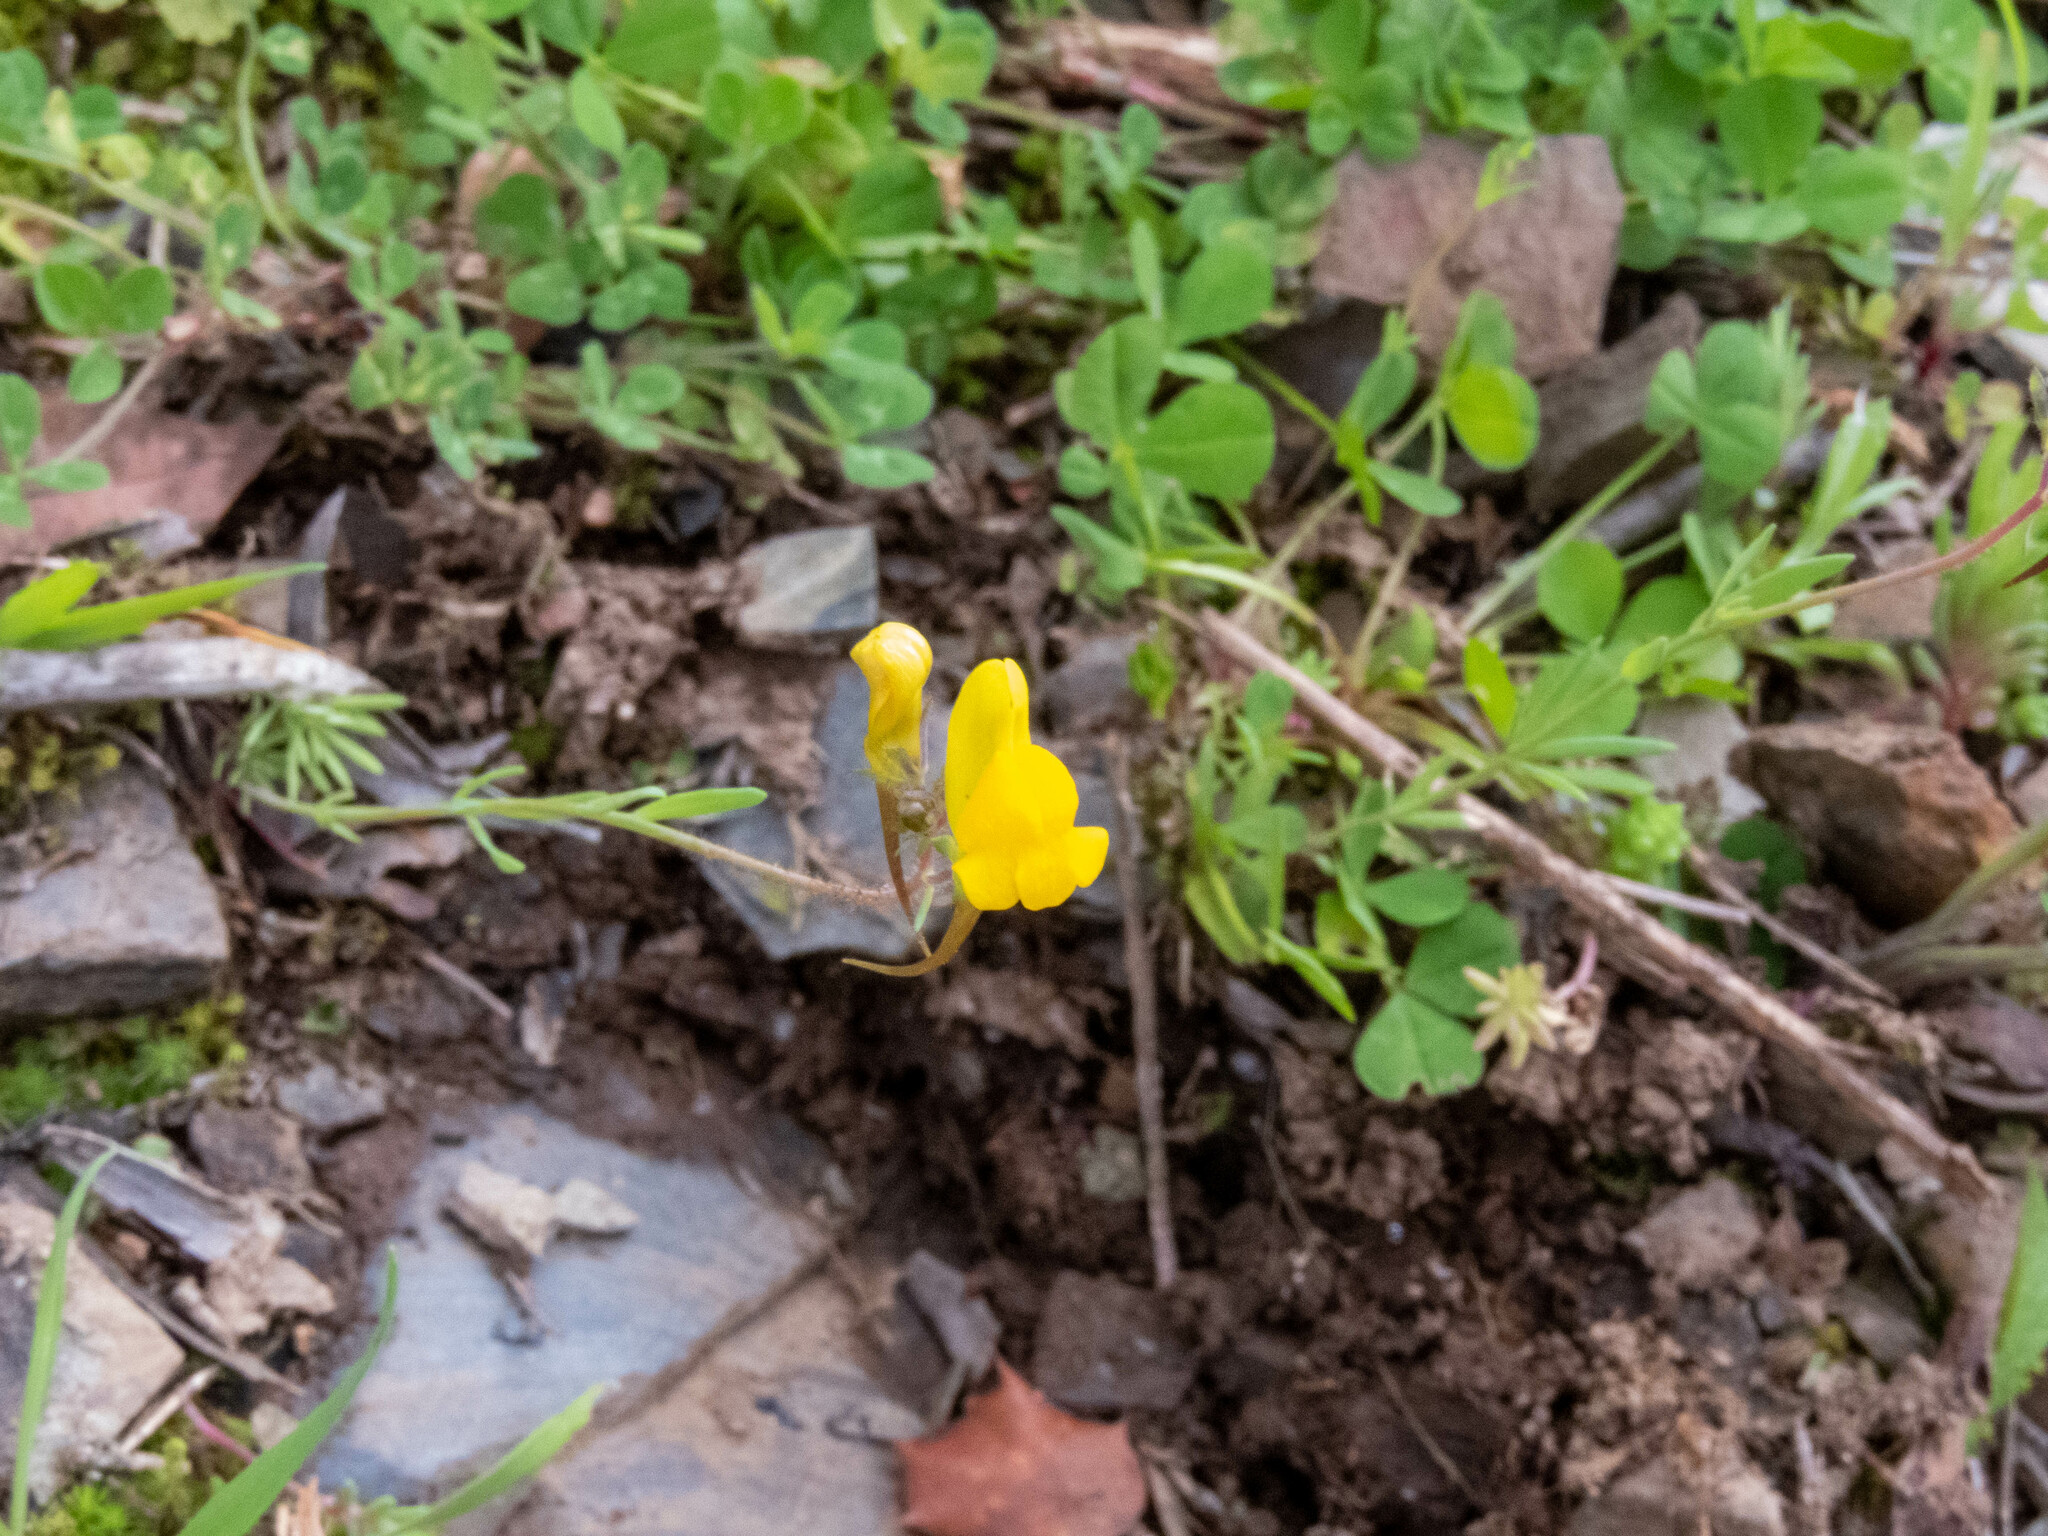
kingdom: Plantae
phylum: Tracheophyta
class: Magnoliopsida
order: Lamiales
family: Plantaginaceae
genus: Linaria
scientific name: Linaria oblongifolia
